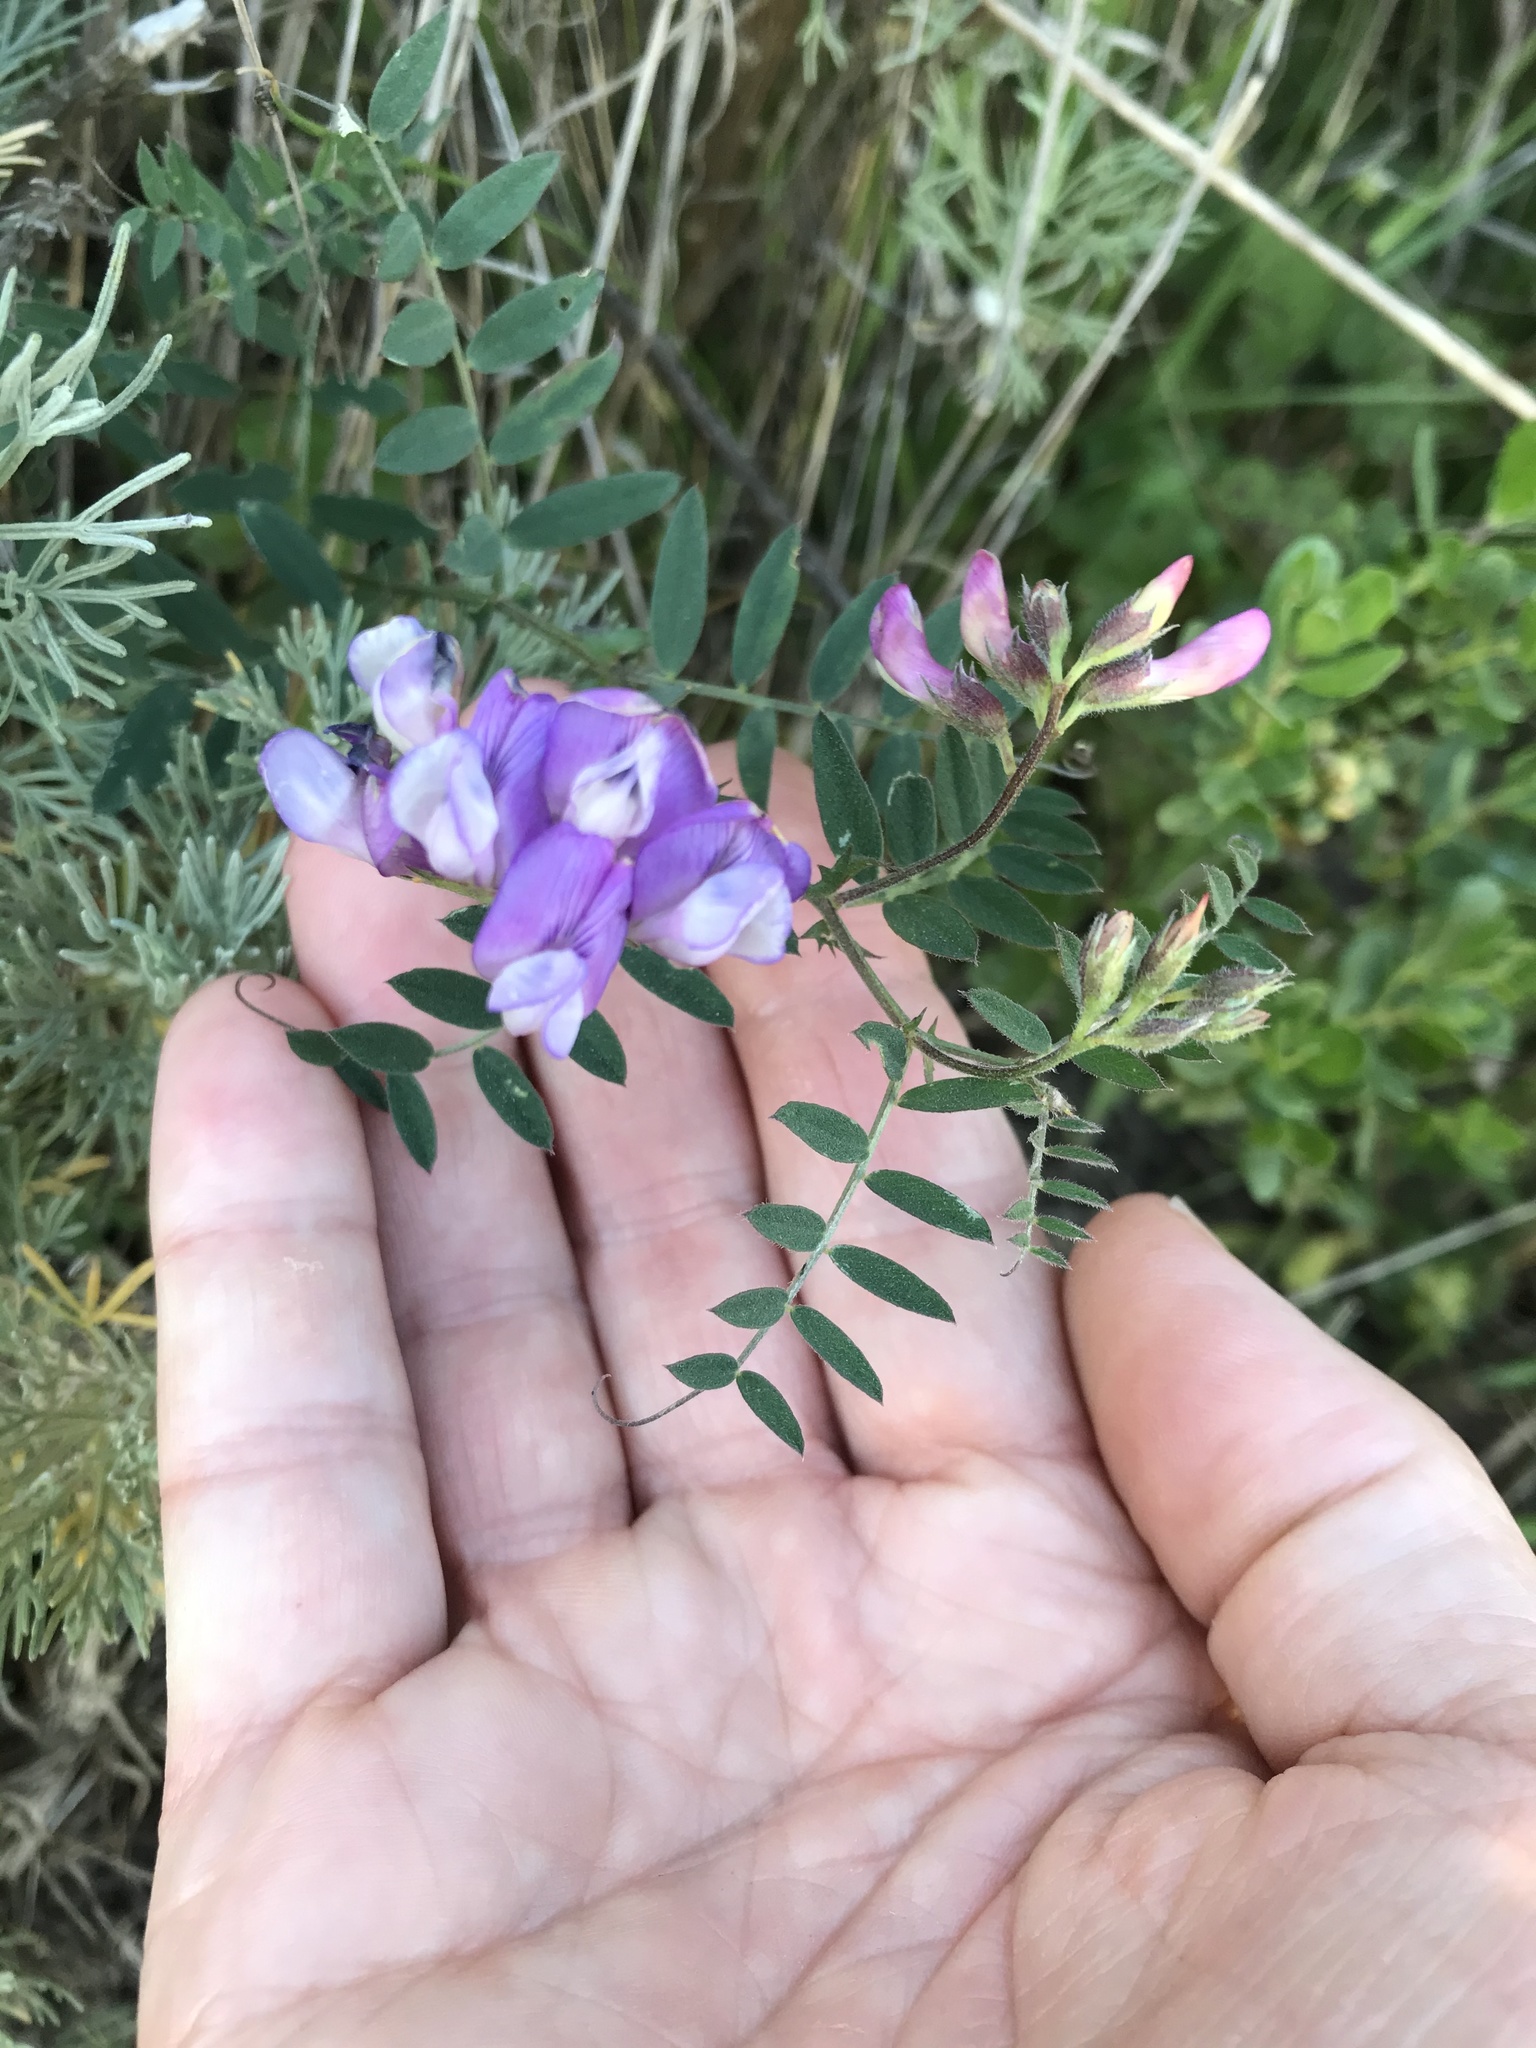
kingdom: Plantae
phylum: Tracheophyta
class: Magnoliopsida
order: Fabales
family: Fabaceae
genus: Vicia
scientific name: Vicia americana
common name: American vetch
